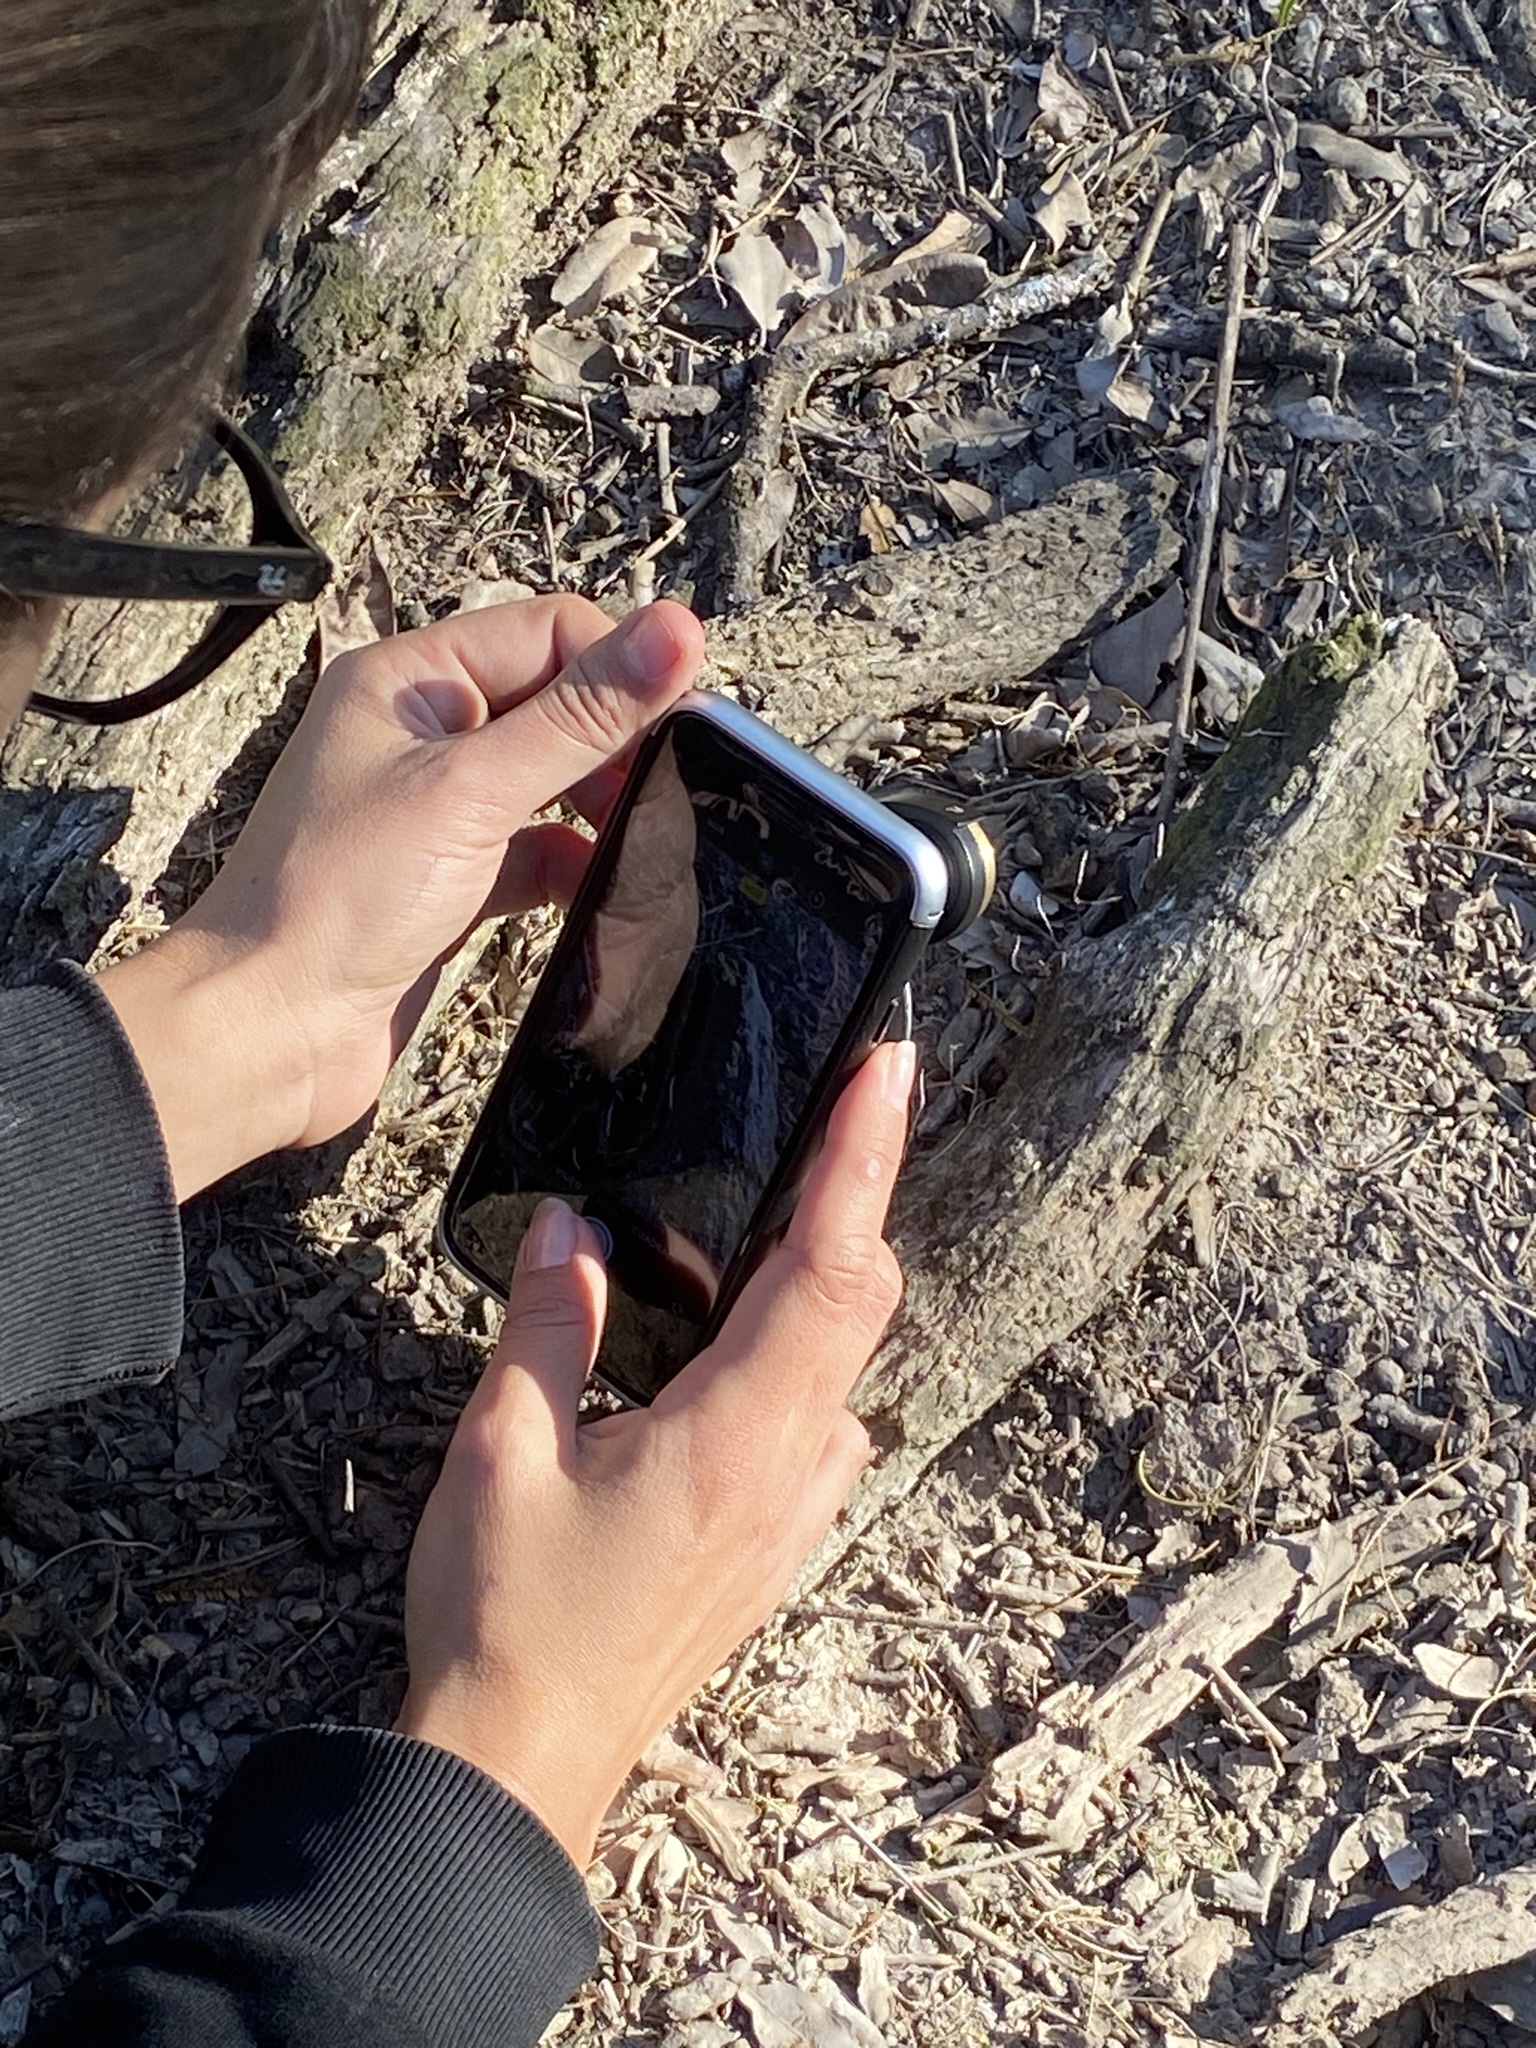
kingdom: Fungi
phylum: Ascomycota
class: Sordariomycetes
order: Xylariales
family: Xylariaceae
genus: Xylaria
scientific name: Xylaria filiformis
